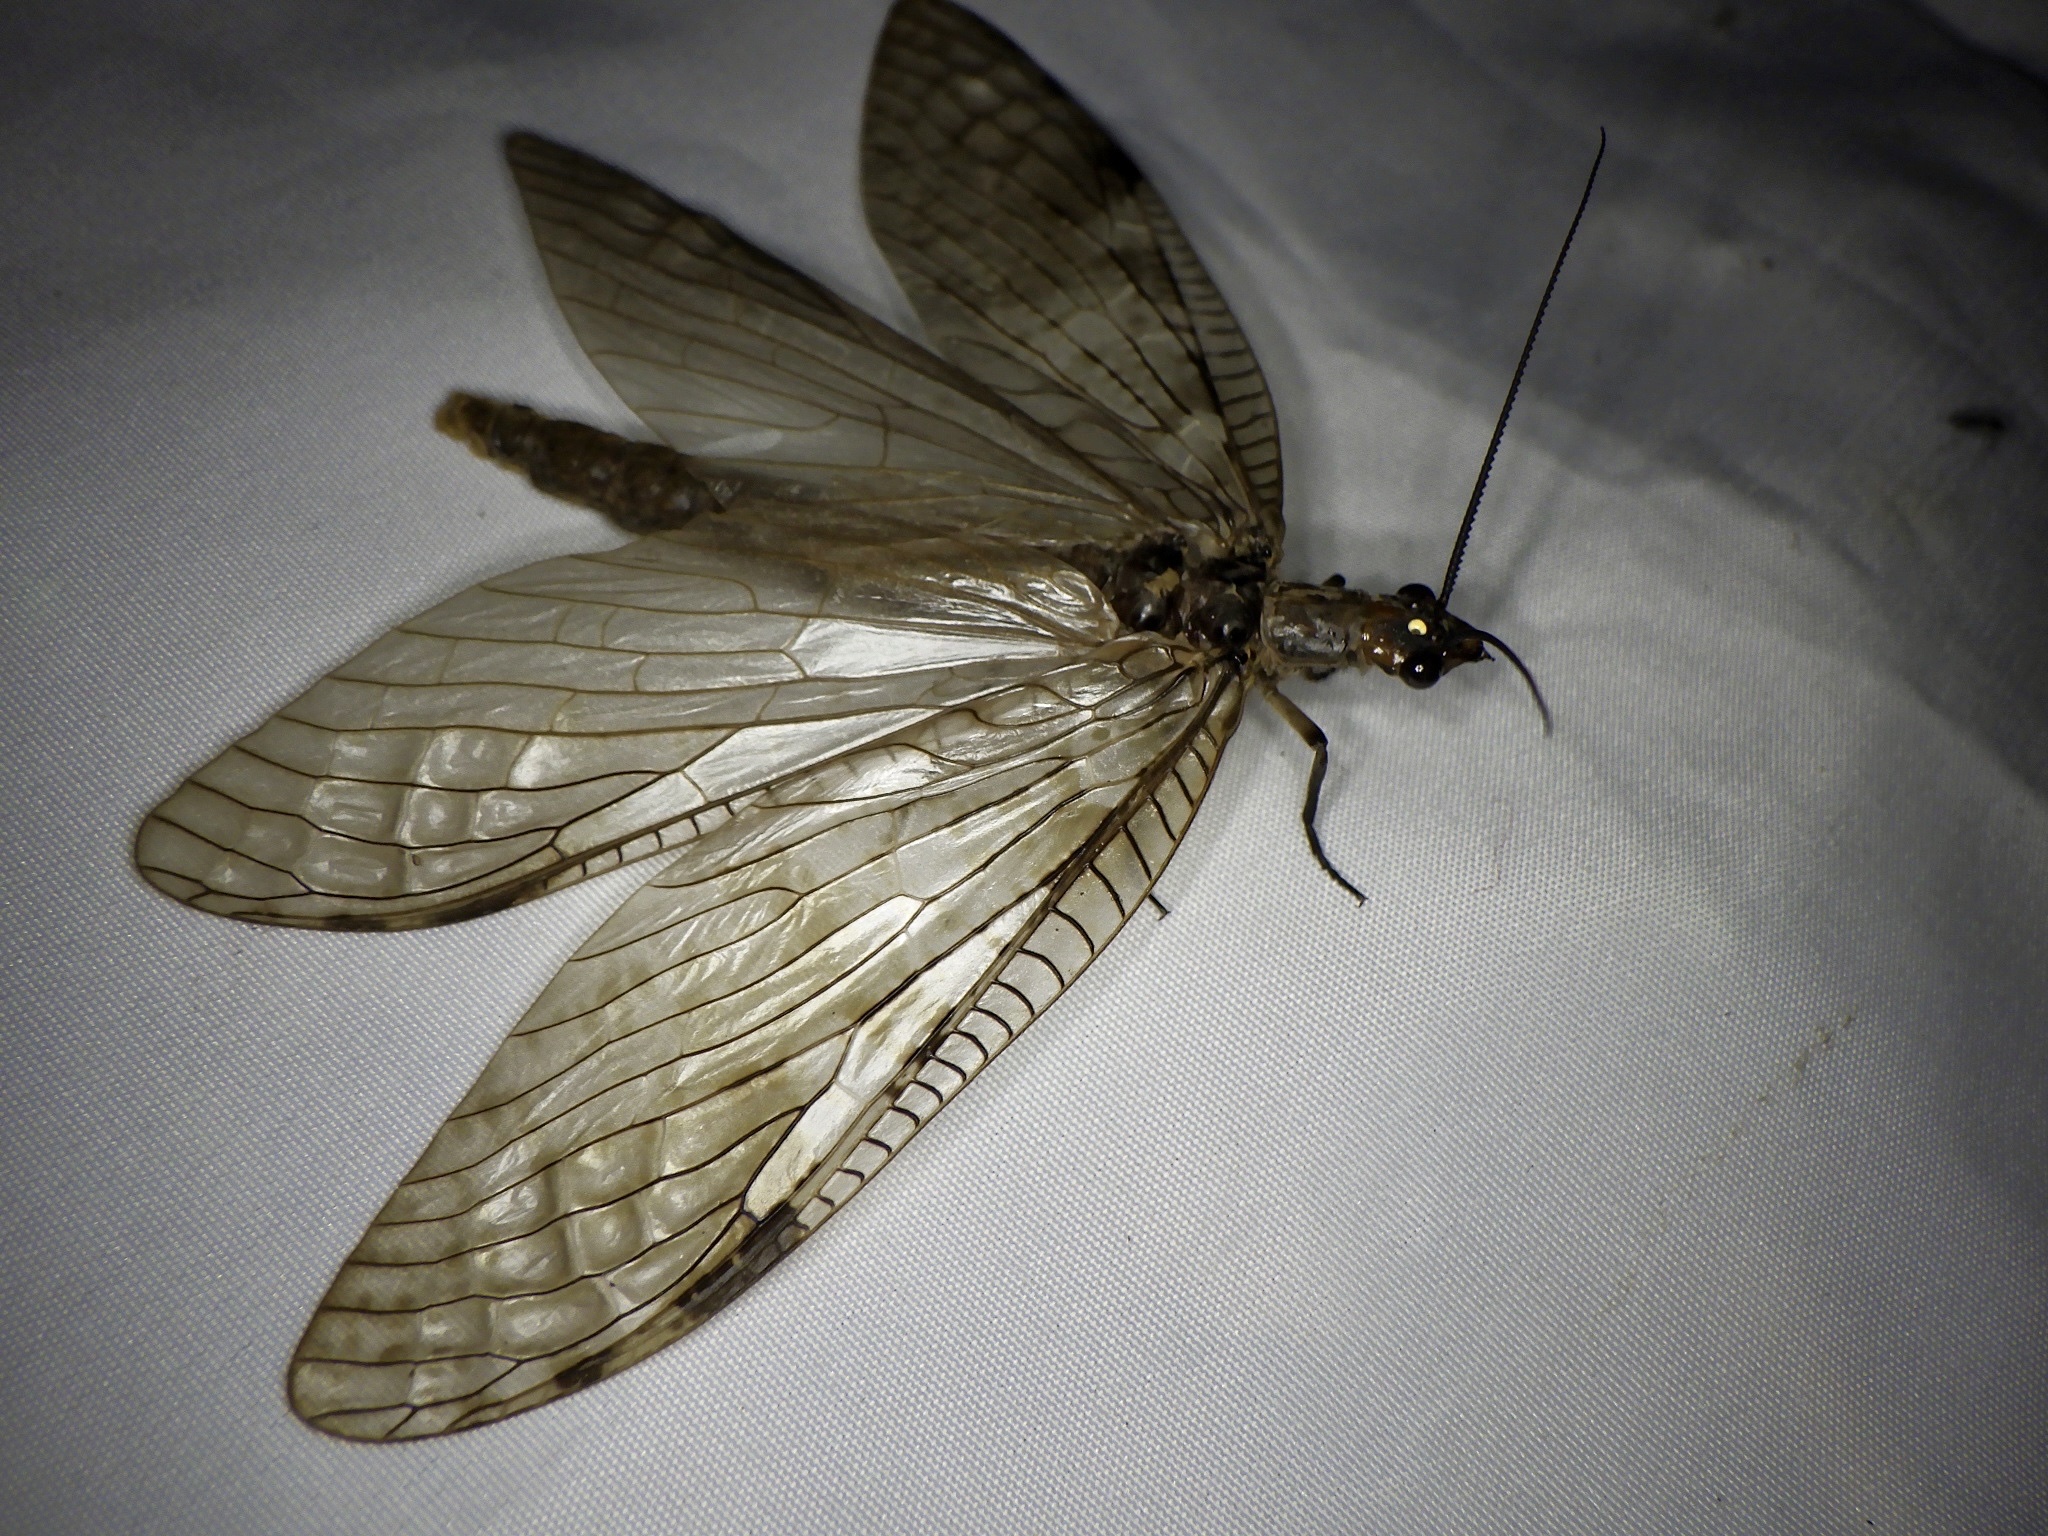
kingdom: Animalia
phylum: Arthropoda
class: Insecta
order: Megaloptera
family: Corydalidae
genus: Parachauliodes
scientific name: Parachauliodes continentalis
